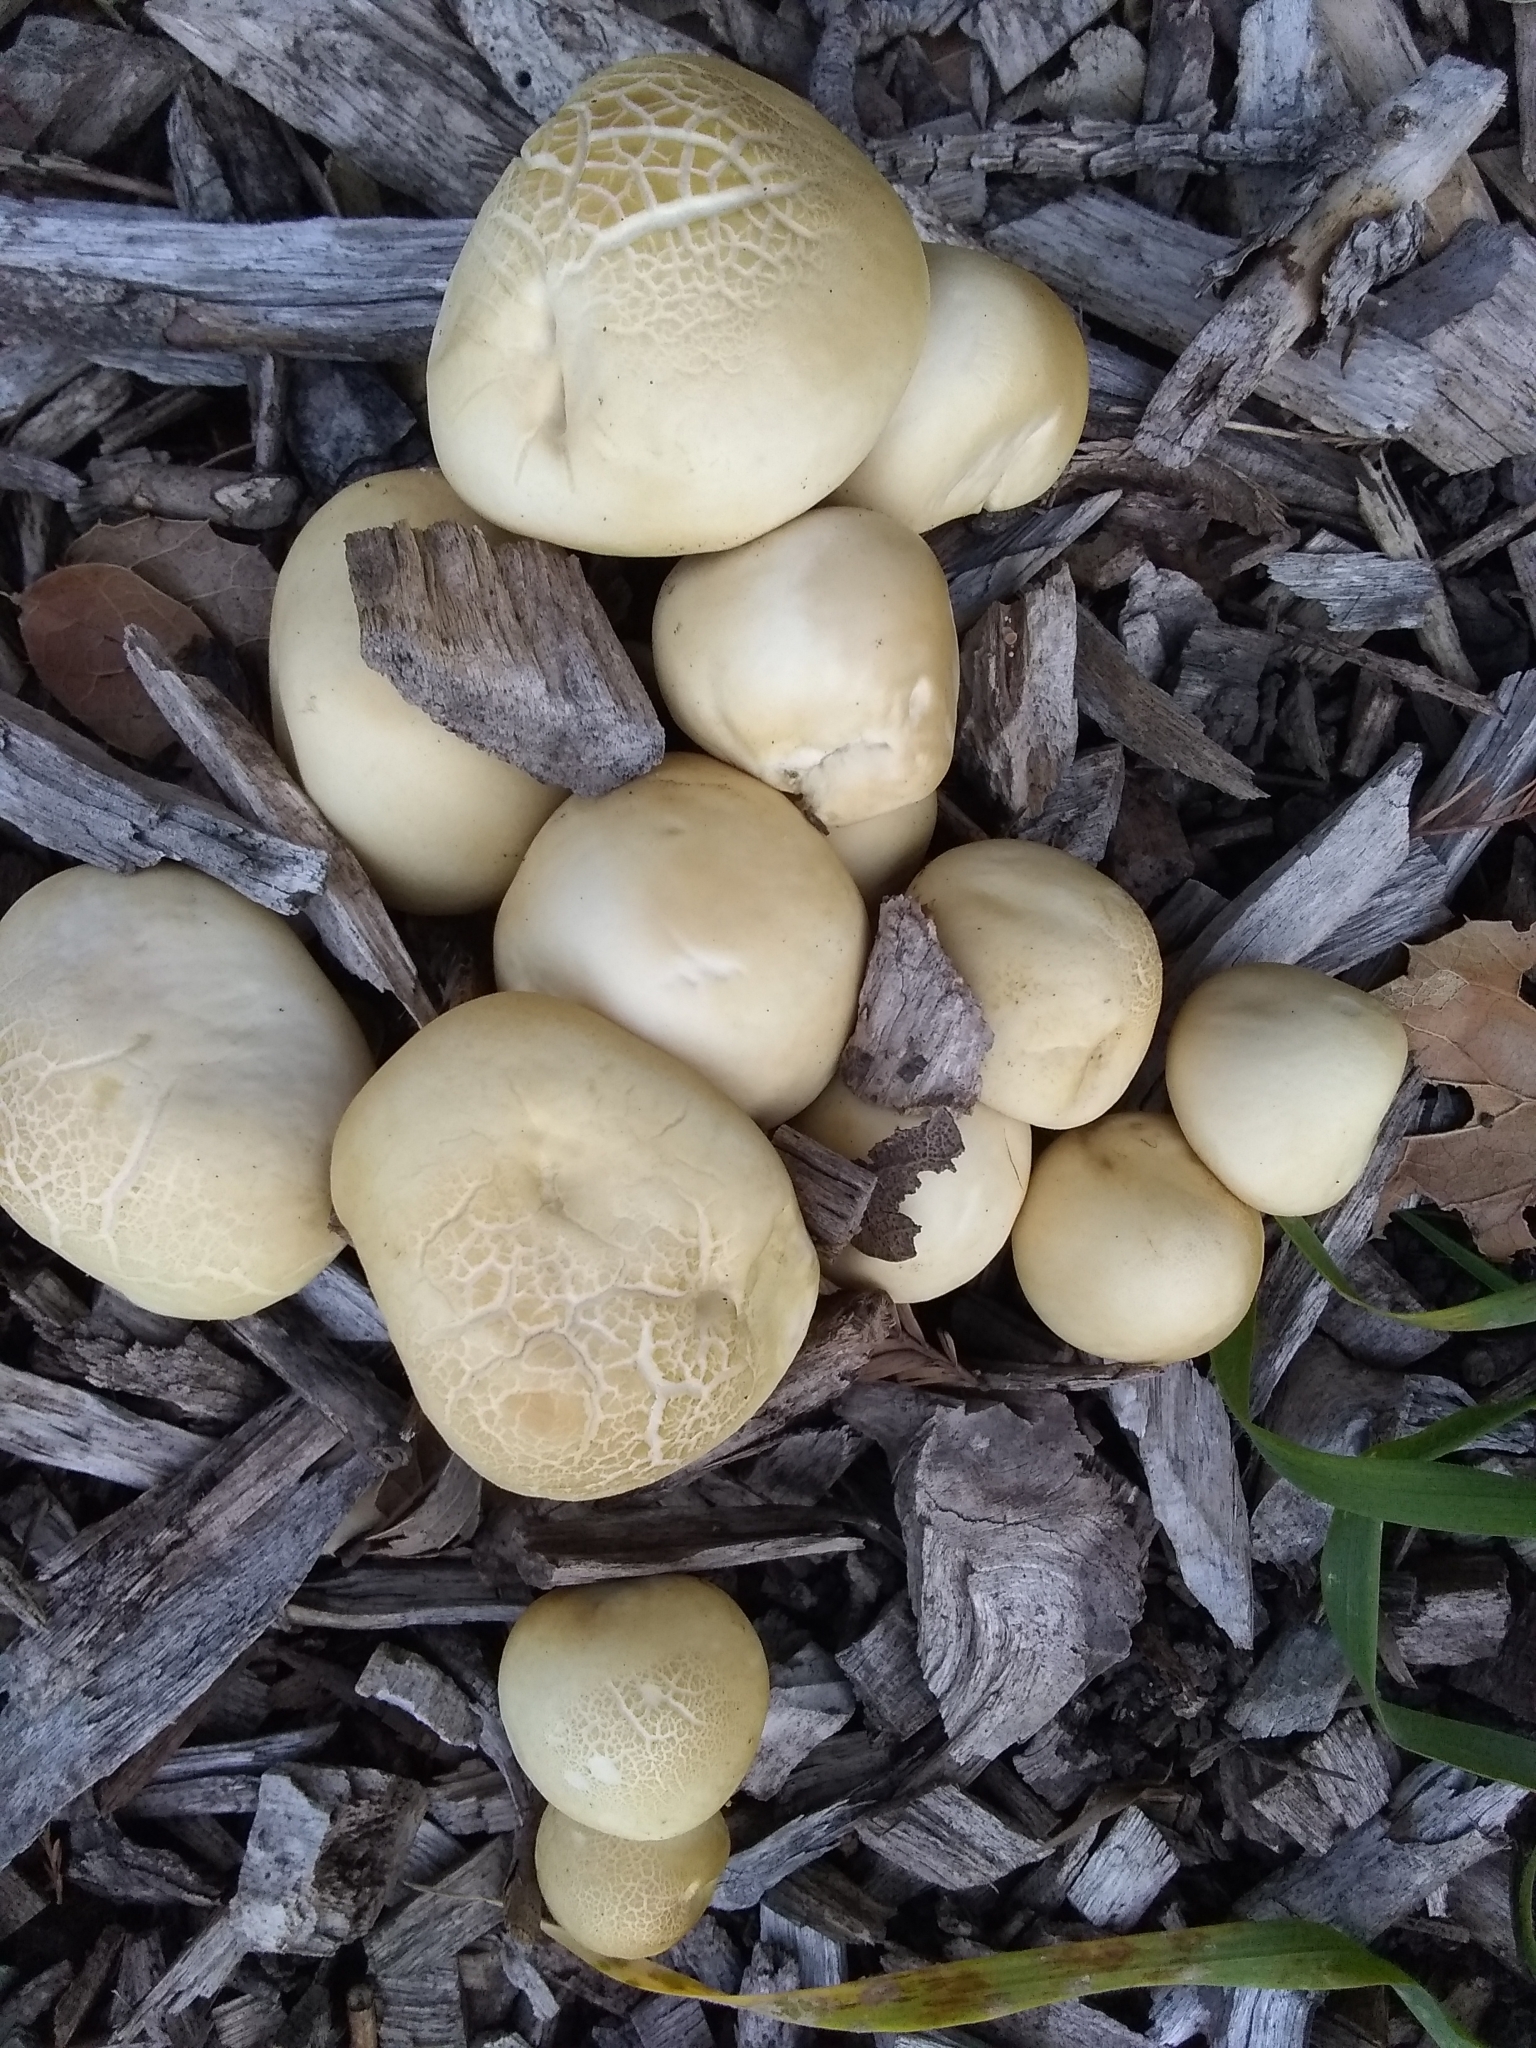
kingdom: Fungi
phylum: Basidiomycota
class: Agaricomycetes
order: Agaricales
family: Strophariaceae
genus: Agrocybe
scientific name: Agrocybe praecox
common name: Spring fieldcap
